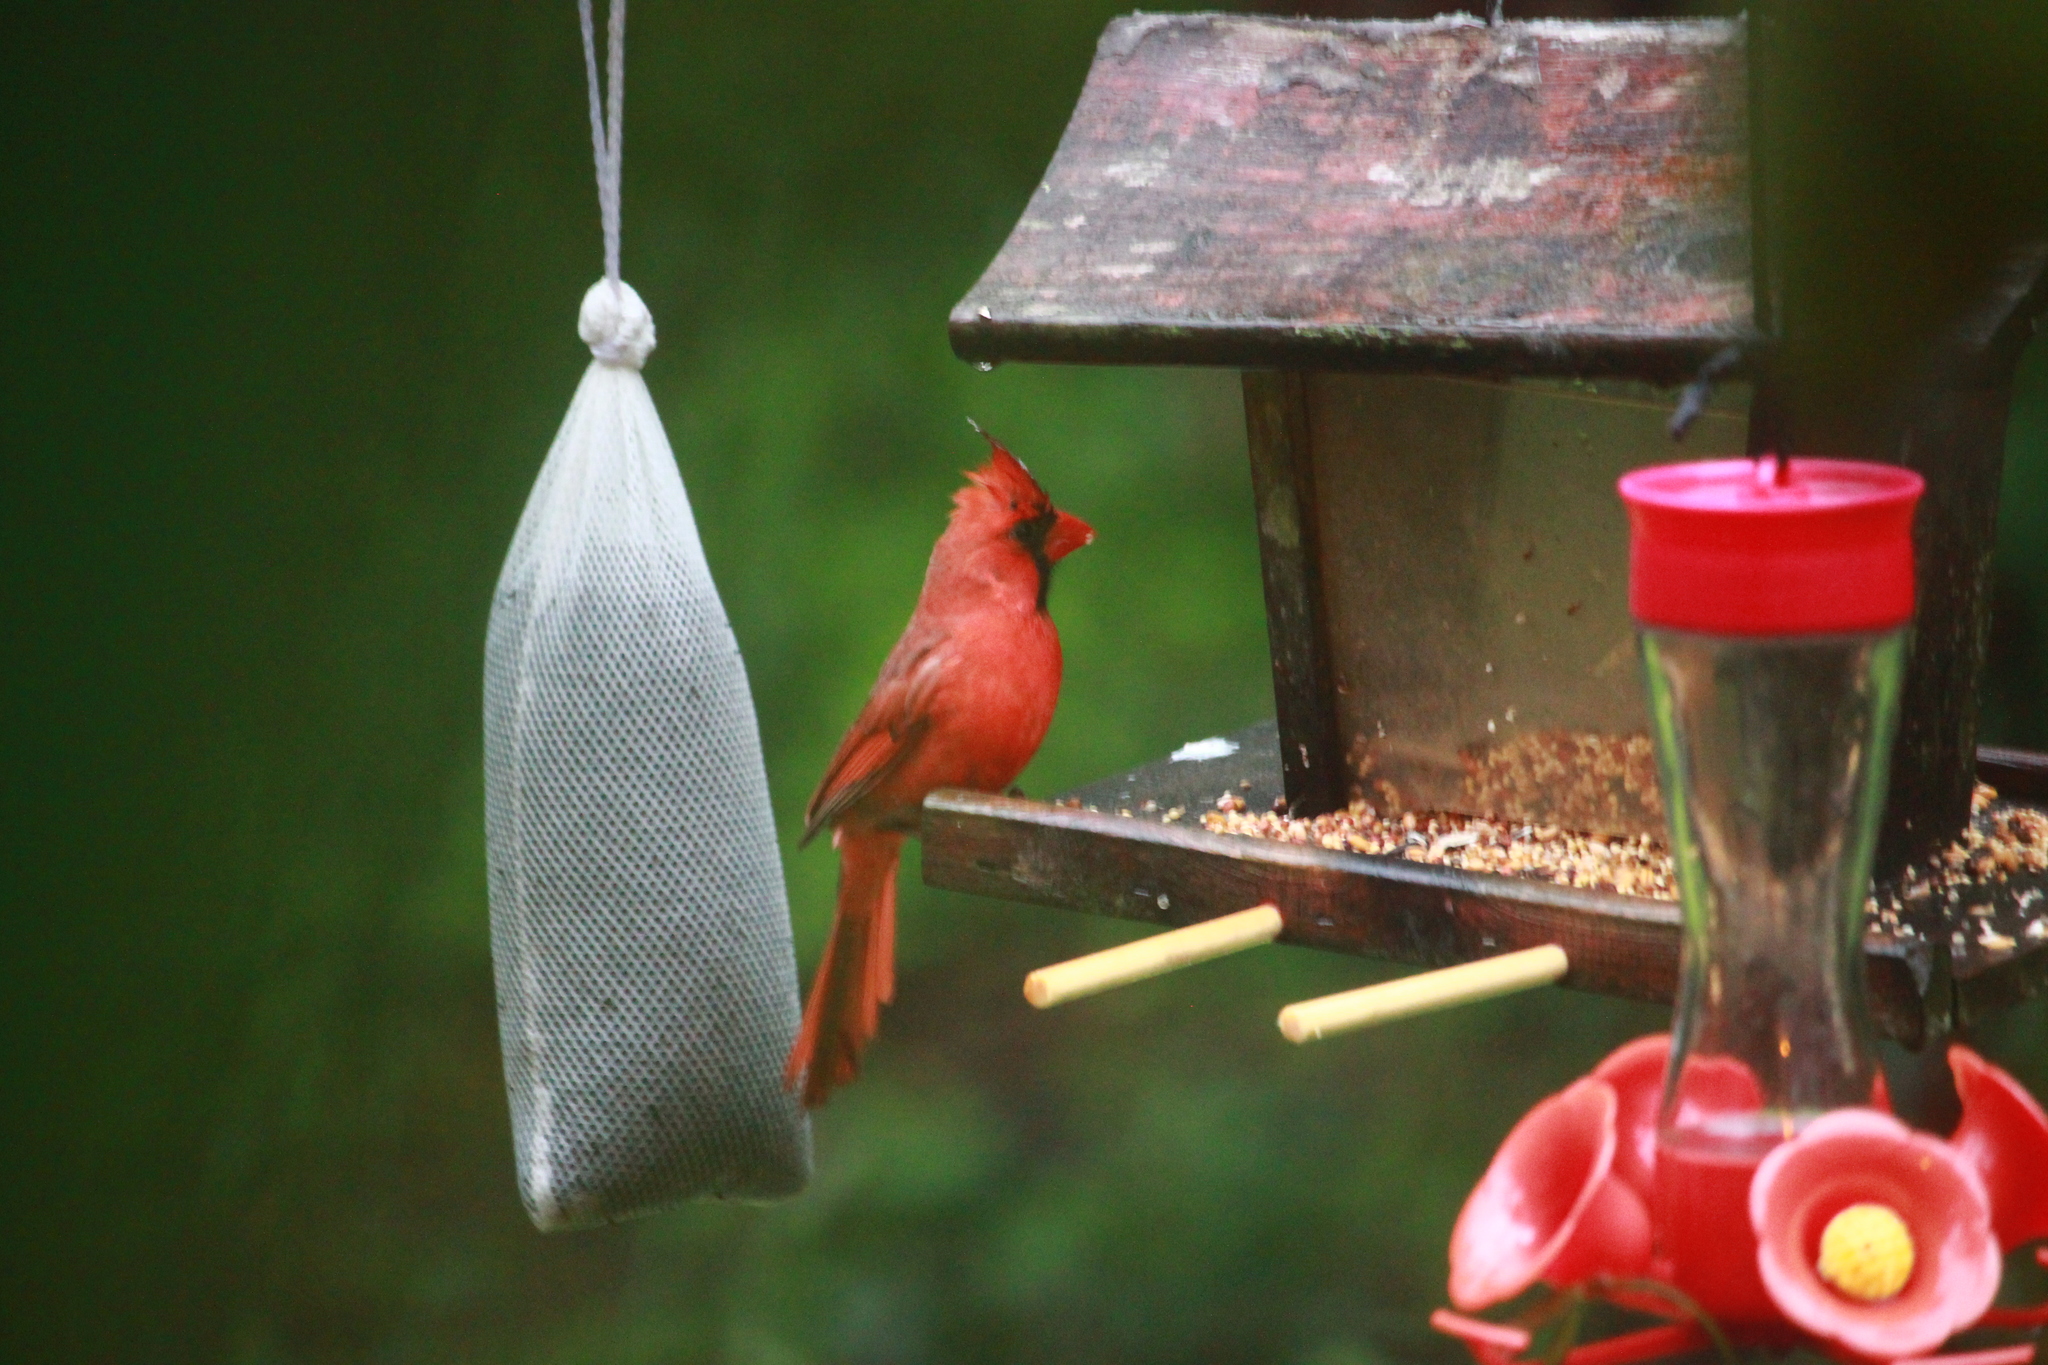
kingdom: Animalia
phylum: Chordata
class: Aves
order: Passeriformes
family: Cardinalidae
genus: Cardinalis
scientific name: Cardinalis cardinalis
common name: Northern cardinal
